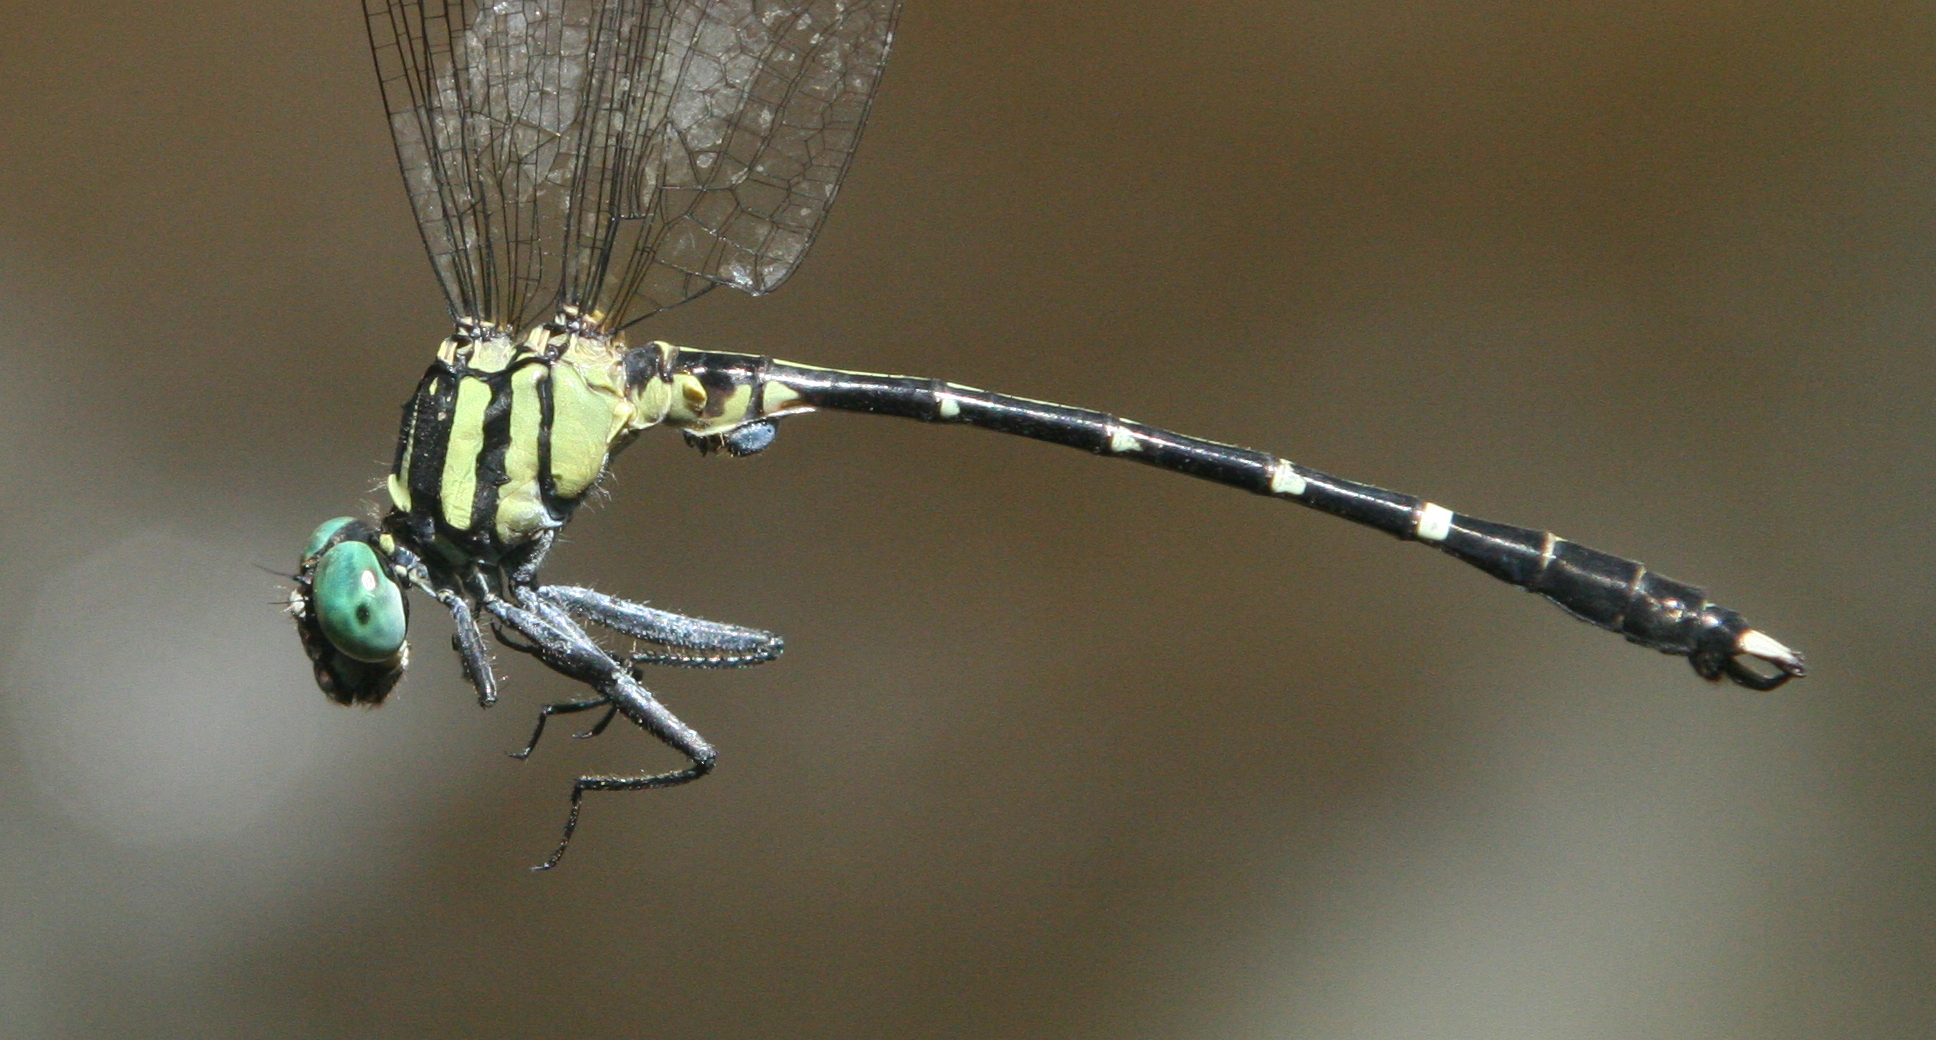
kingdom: Animalia
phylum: Arthropoda
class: Insecta
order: Odonata
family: Gomphidae
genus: Microgomphus
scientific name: Microgomphus alani
